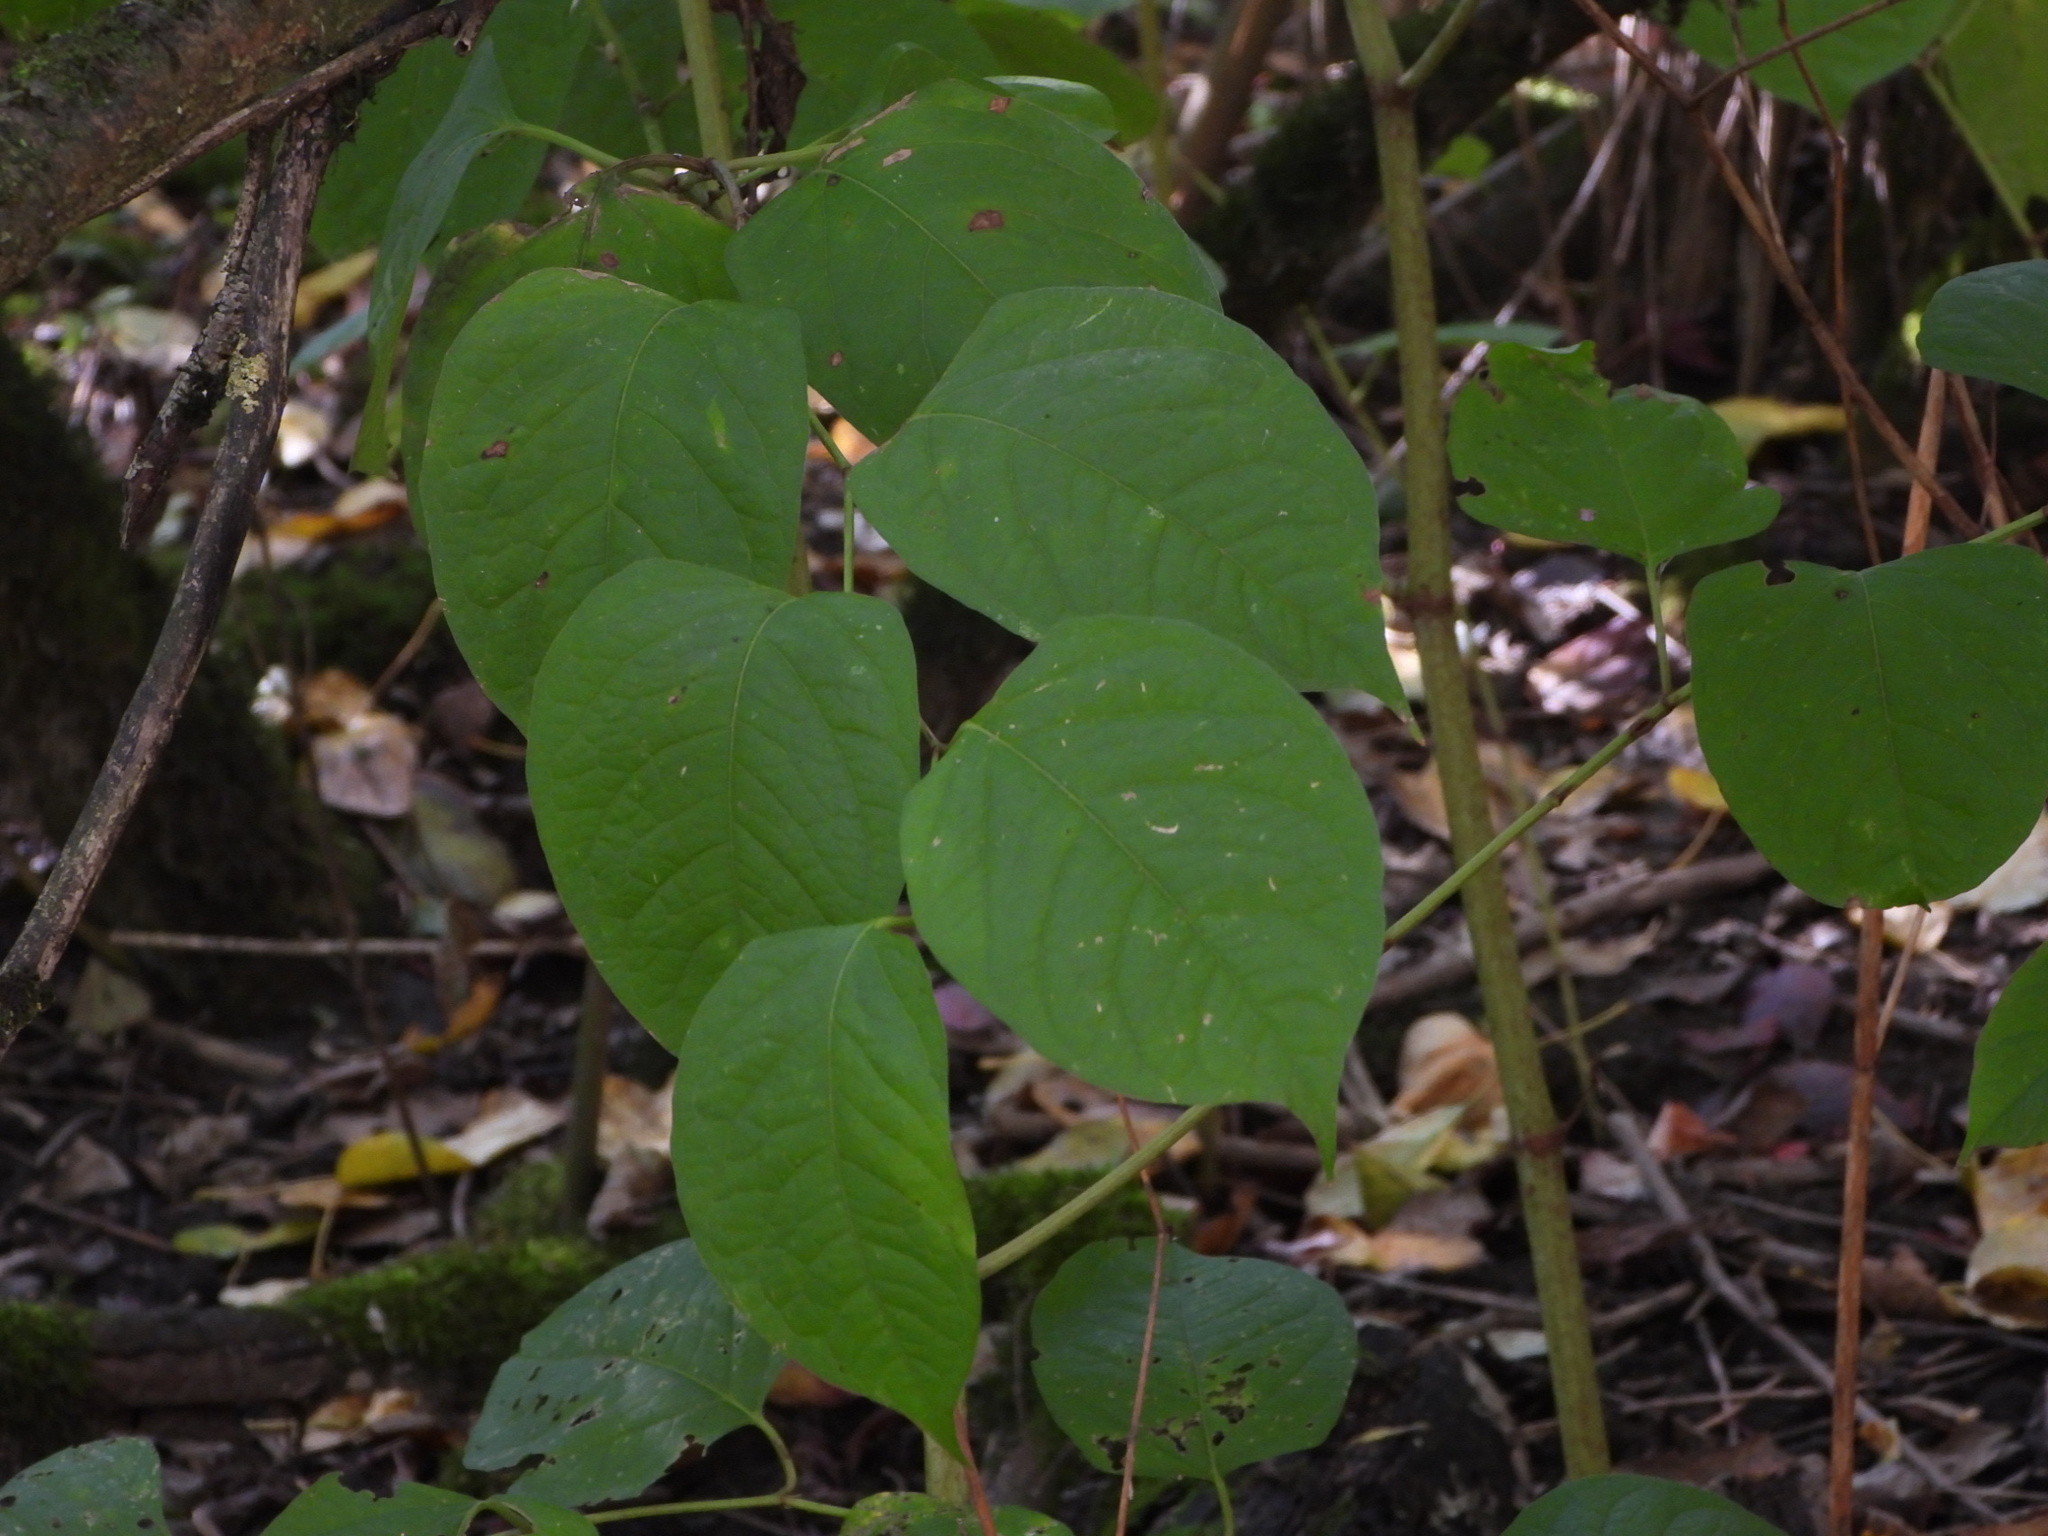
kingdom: Plantae
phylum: Tracheophyta
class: Magnoliopsida
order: Caryophyllales
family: Polygonaceae
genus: Reynoutria
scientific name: Reynoutria japonica
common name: Japanese knotweed
